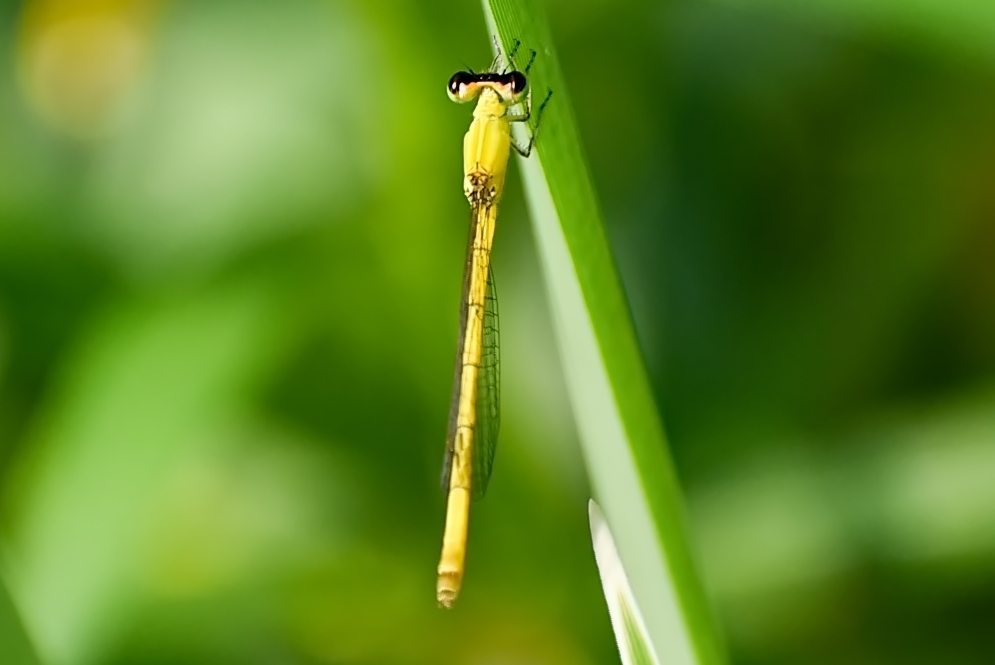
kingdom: Animalia
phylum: Arthropoda
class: Insecta
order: Odonata
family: Coenagrionidae
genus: Agriocnemis
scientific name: Agriocnemis kalinga
